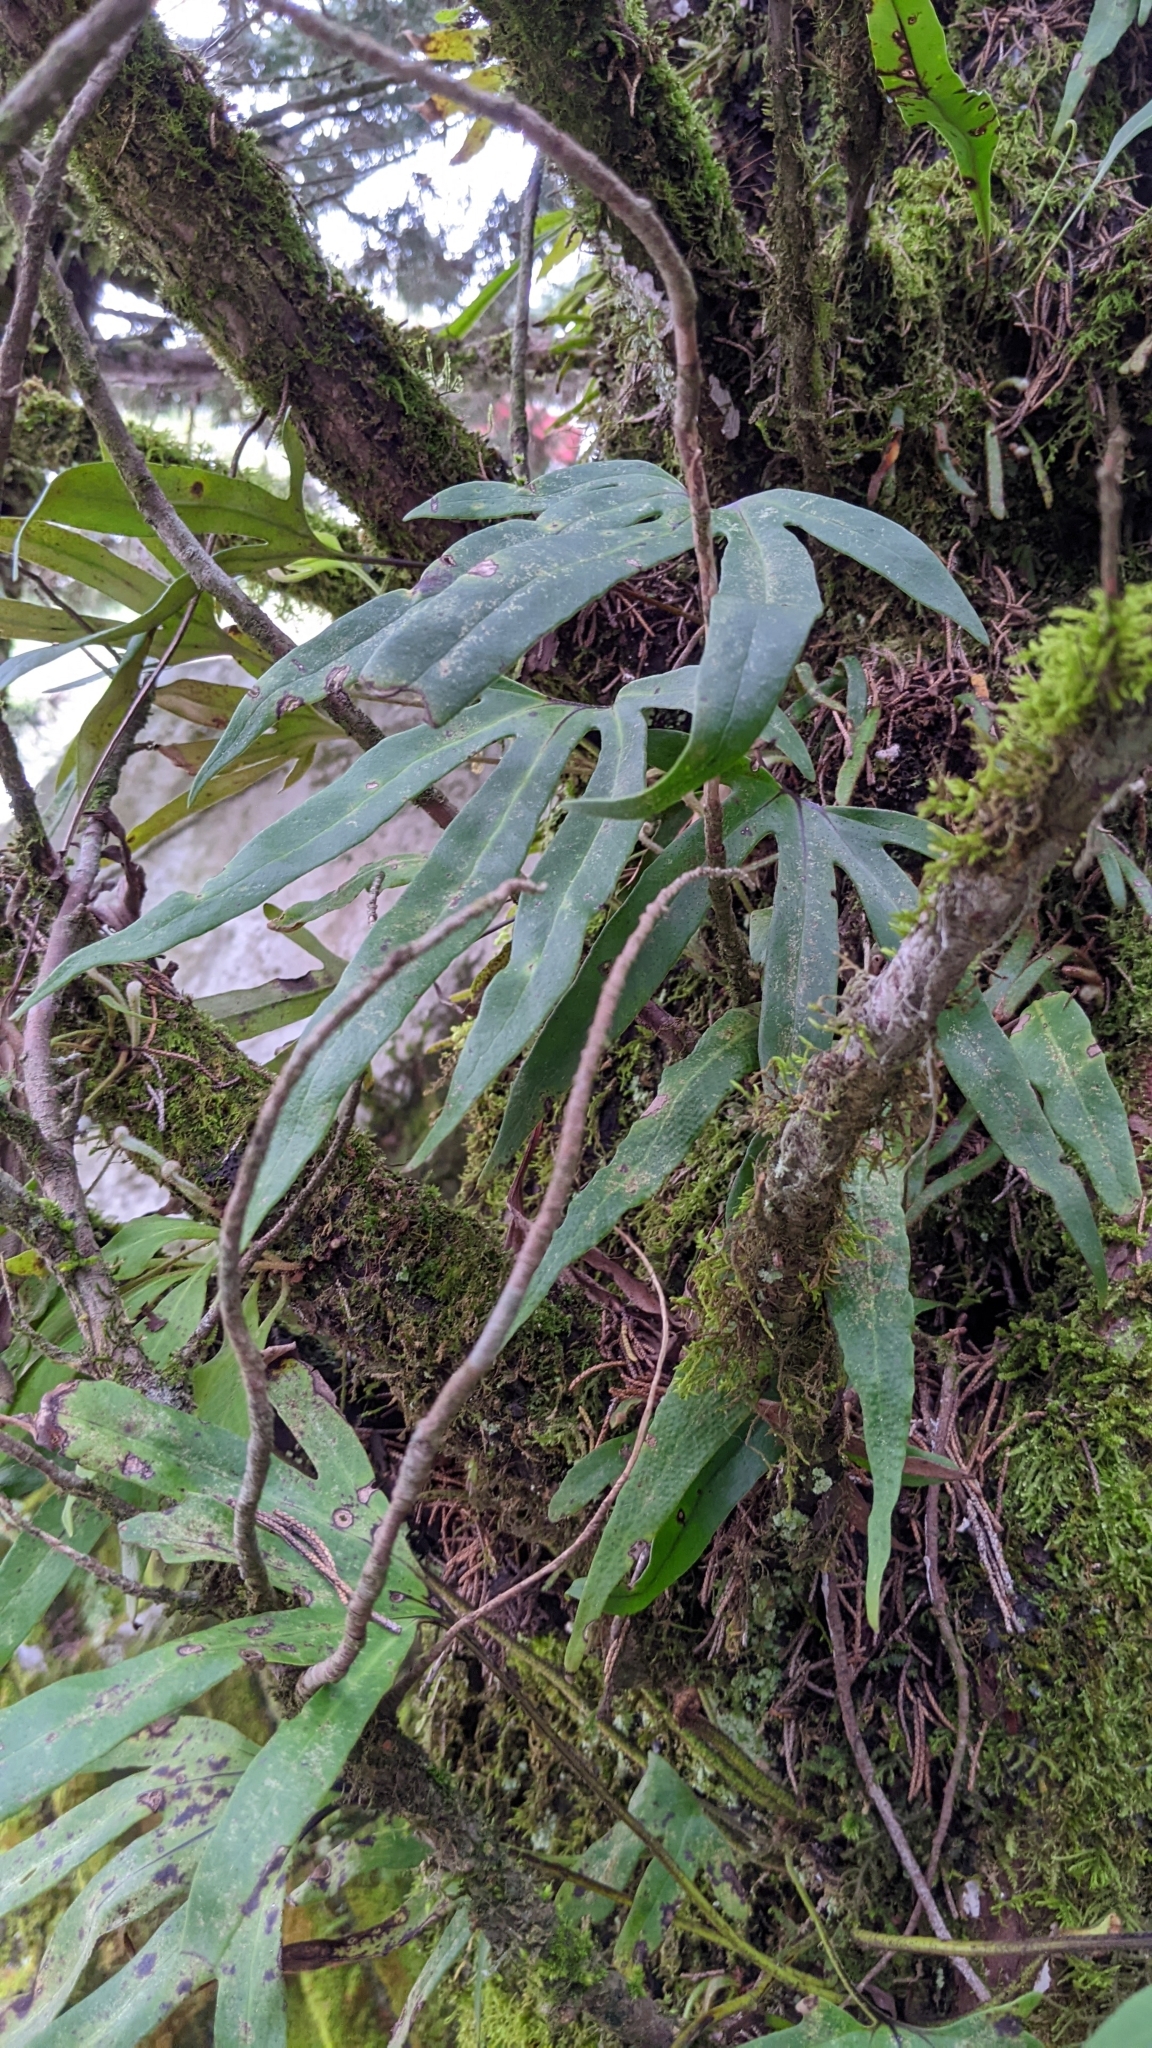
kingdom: Plantae
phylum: Tracheophyta
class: Polypodiopsida
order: Polypodiales
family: Polypodiaceae
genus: Pyrrosia
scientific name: Pyrrosia polydactyla
